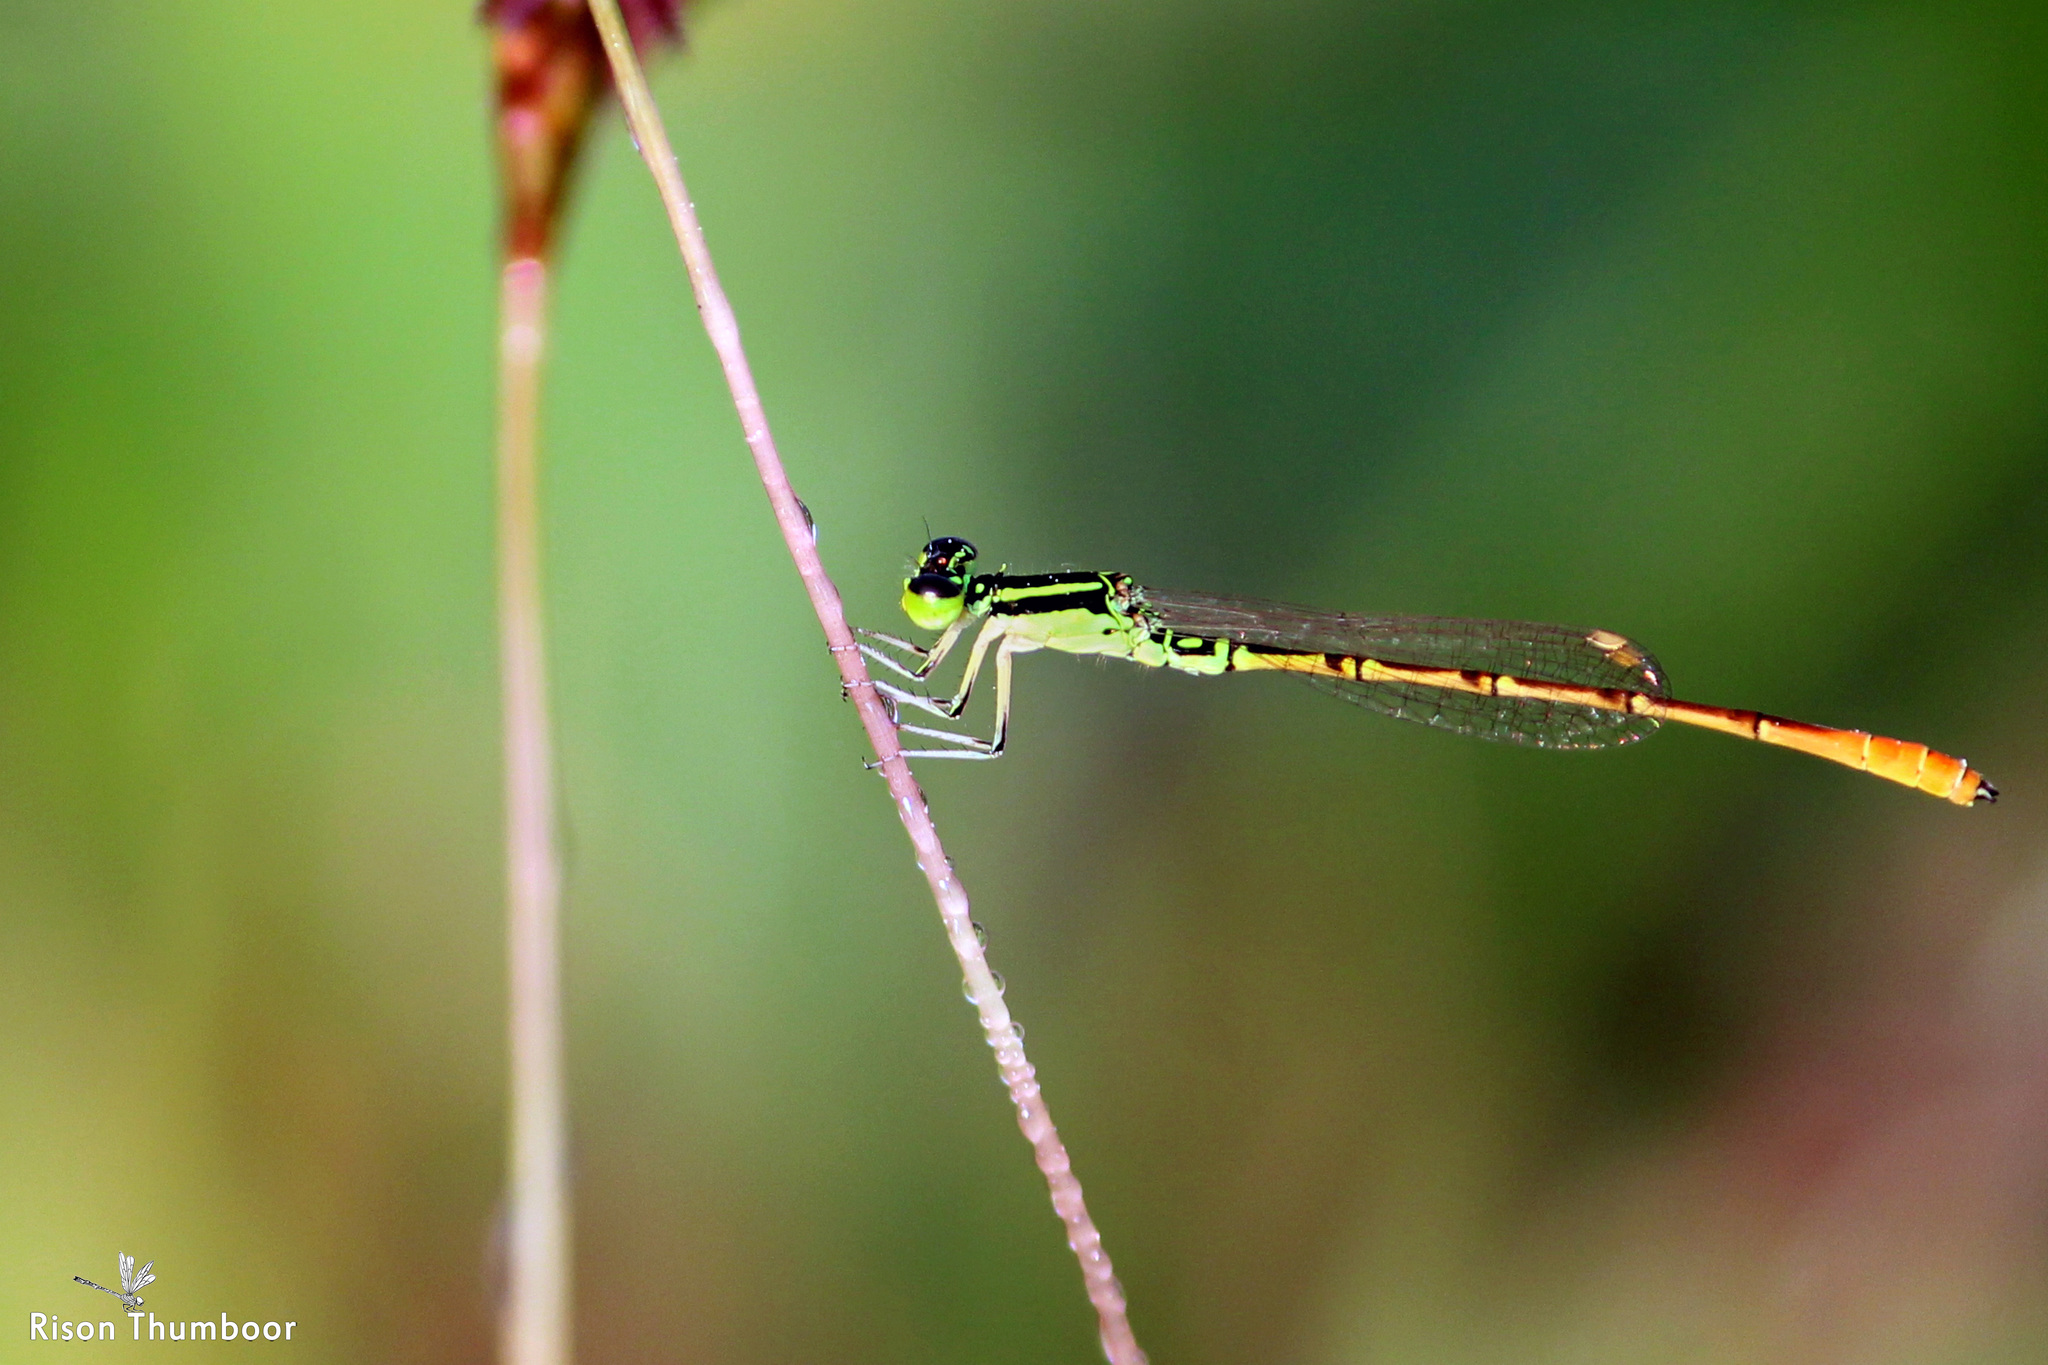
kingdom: Animalia
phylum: Arthropoda
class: Insecta
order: Odonata
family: Coenagrionidae
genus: Agriocnemis
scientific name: Agriocnemis keralensis
